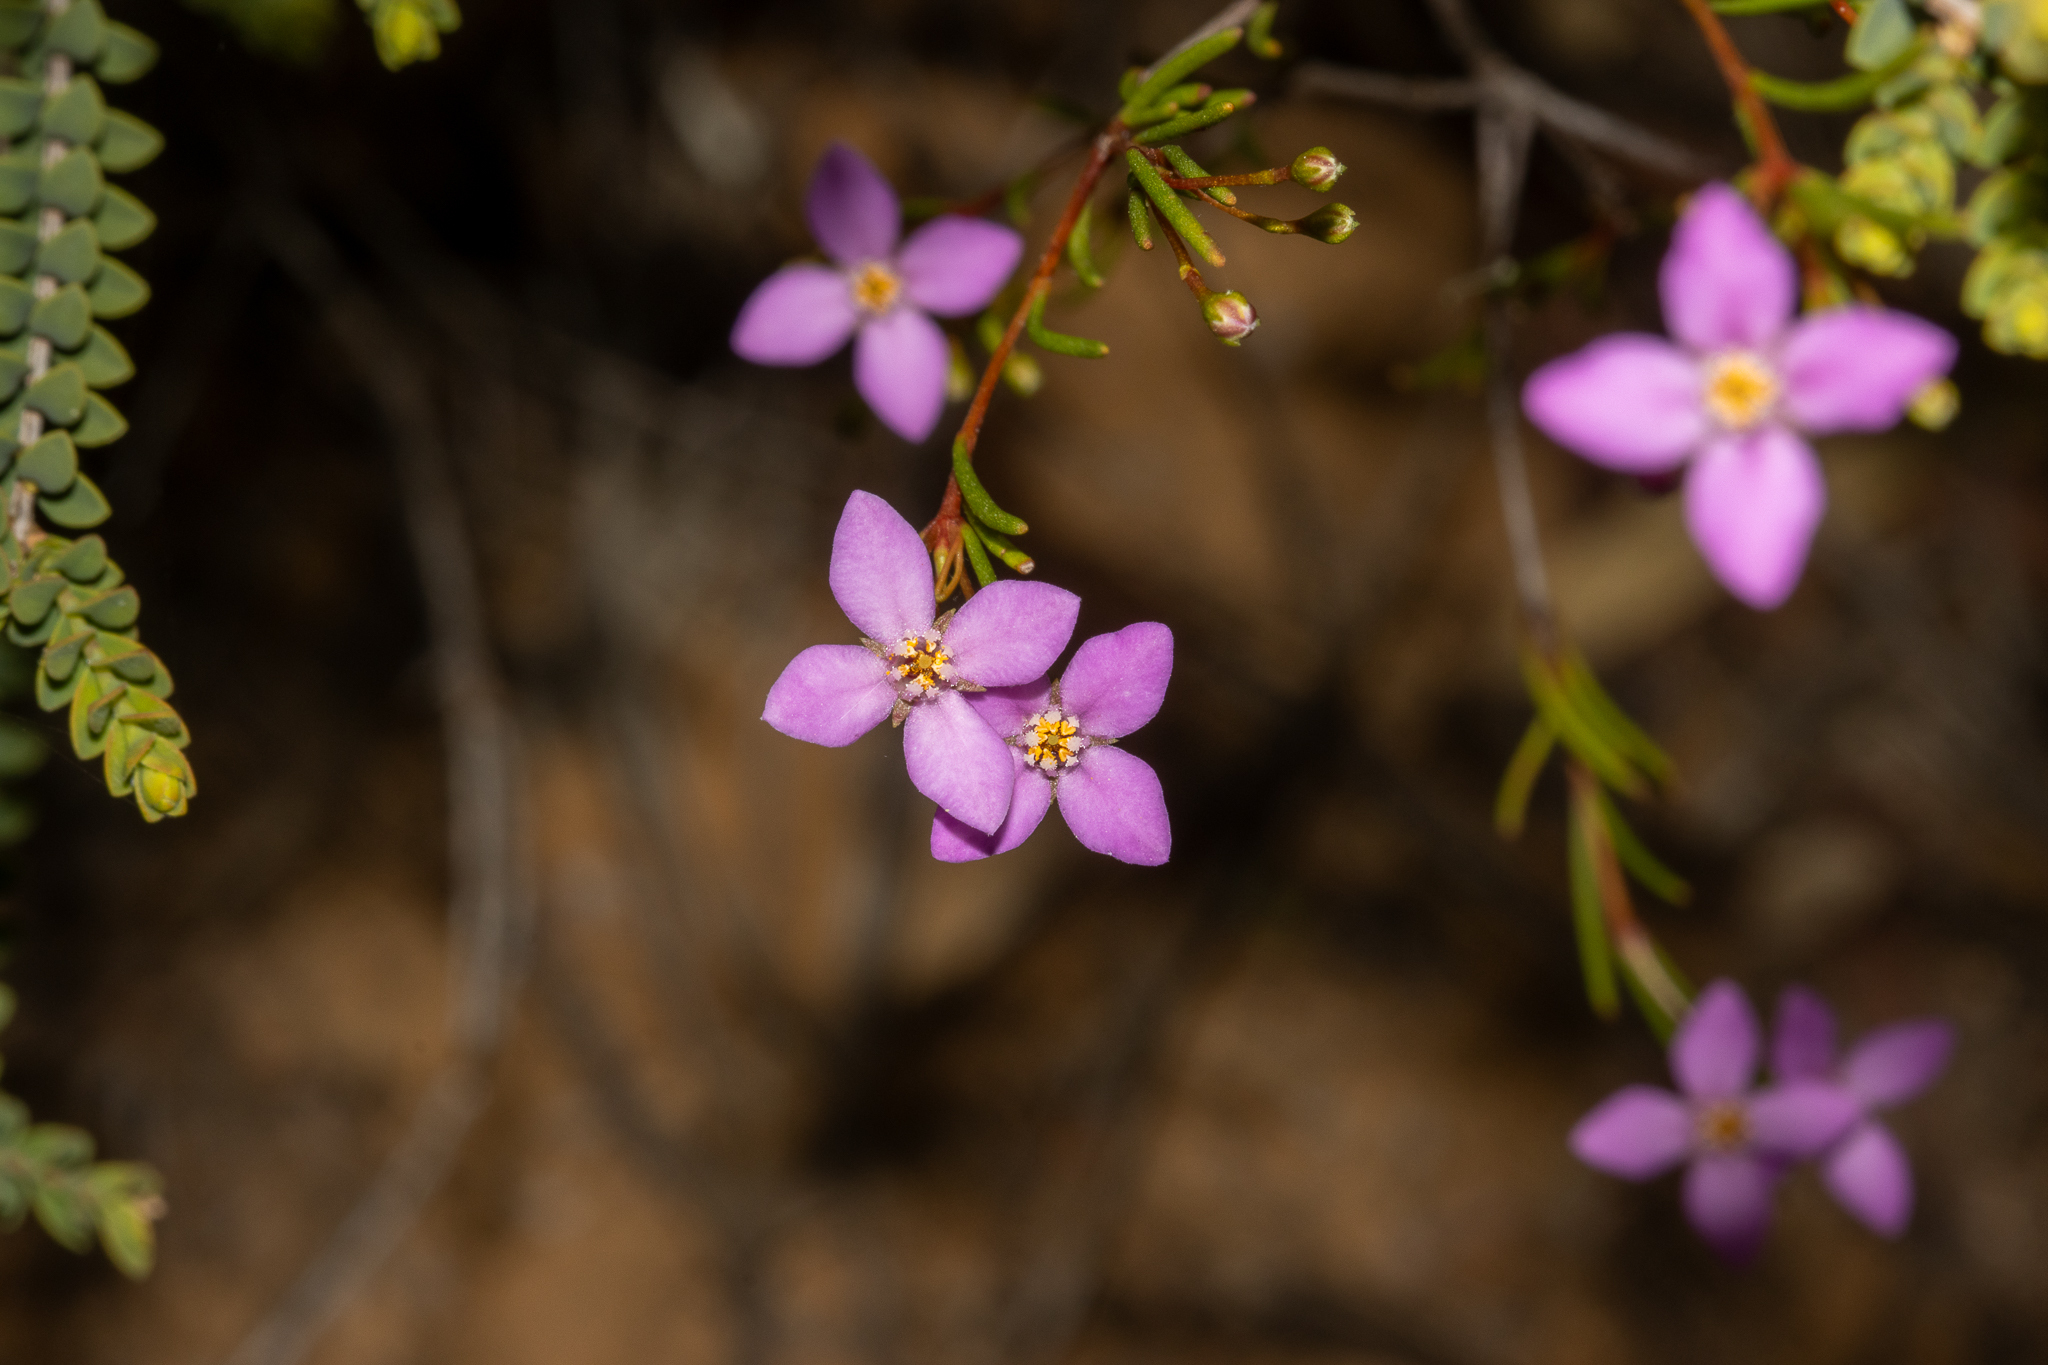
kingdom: Plantae
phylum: Tracheophyta
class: Magnoliopsida
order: Sapindales
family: Rutaceae
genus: Boronia
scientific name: Boronia filifolia
